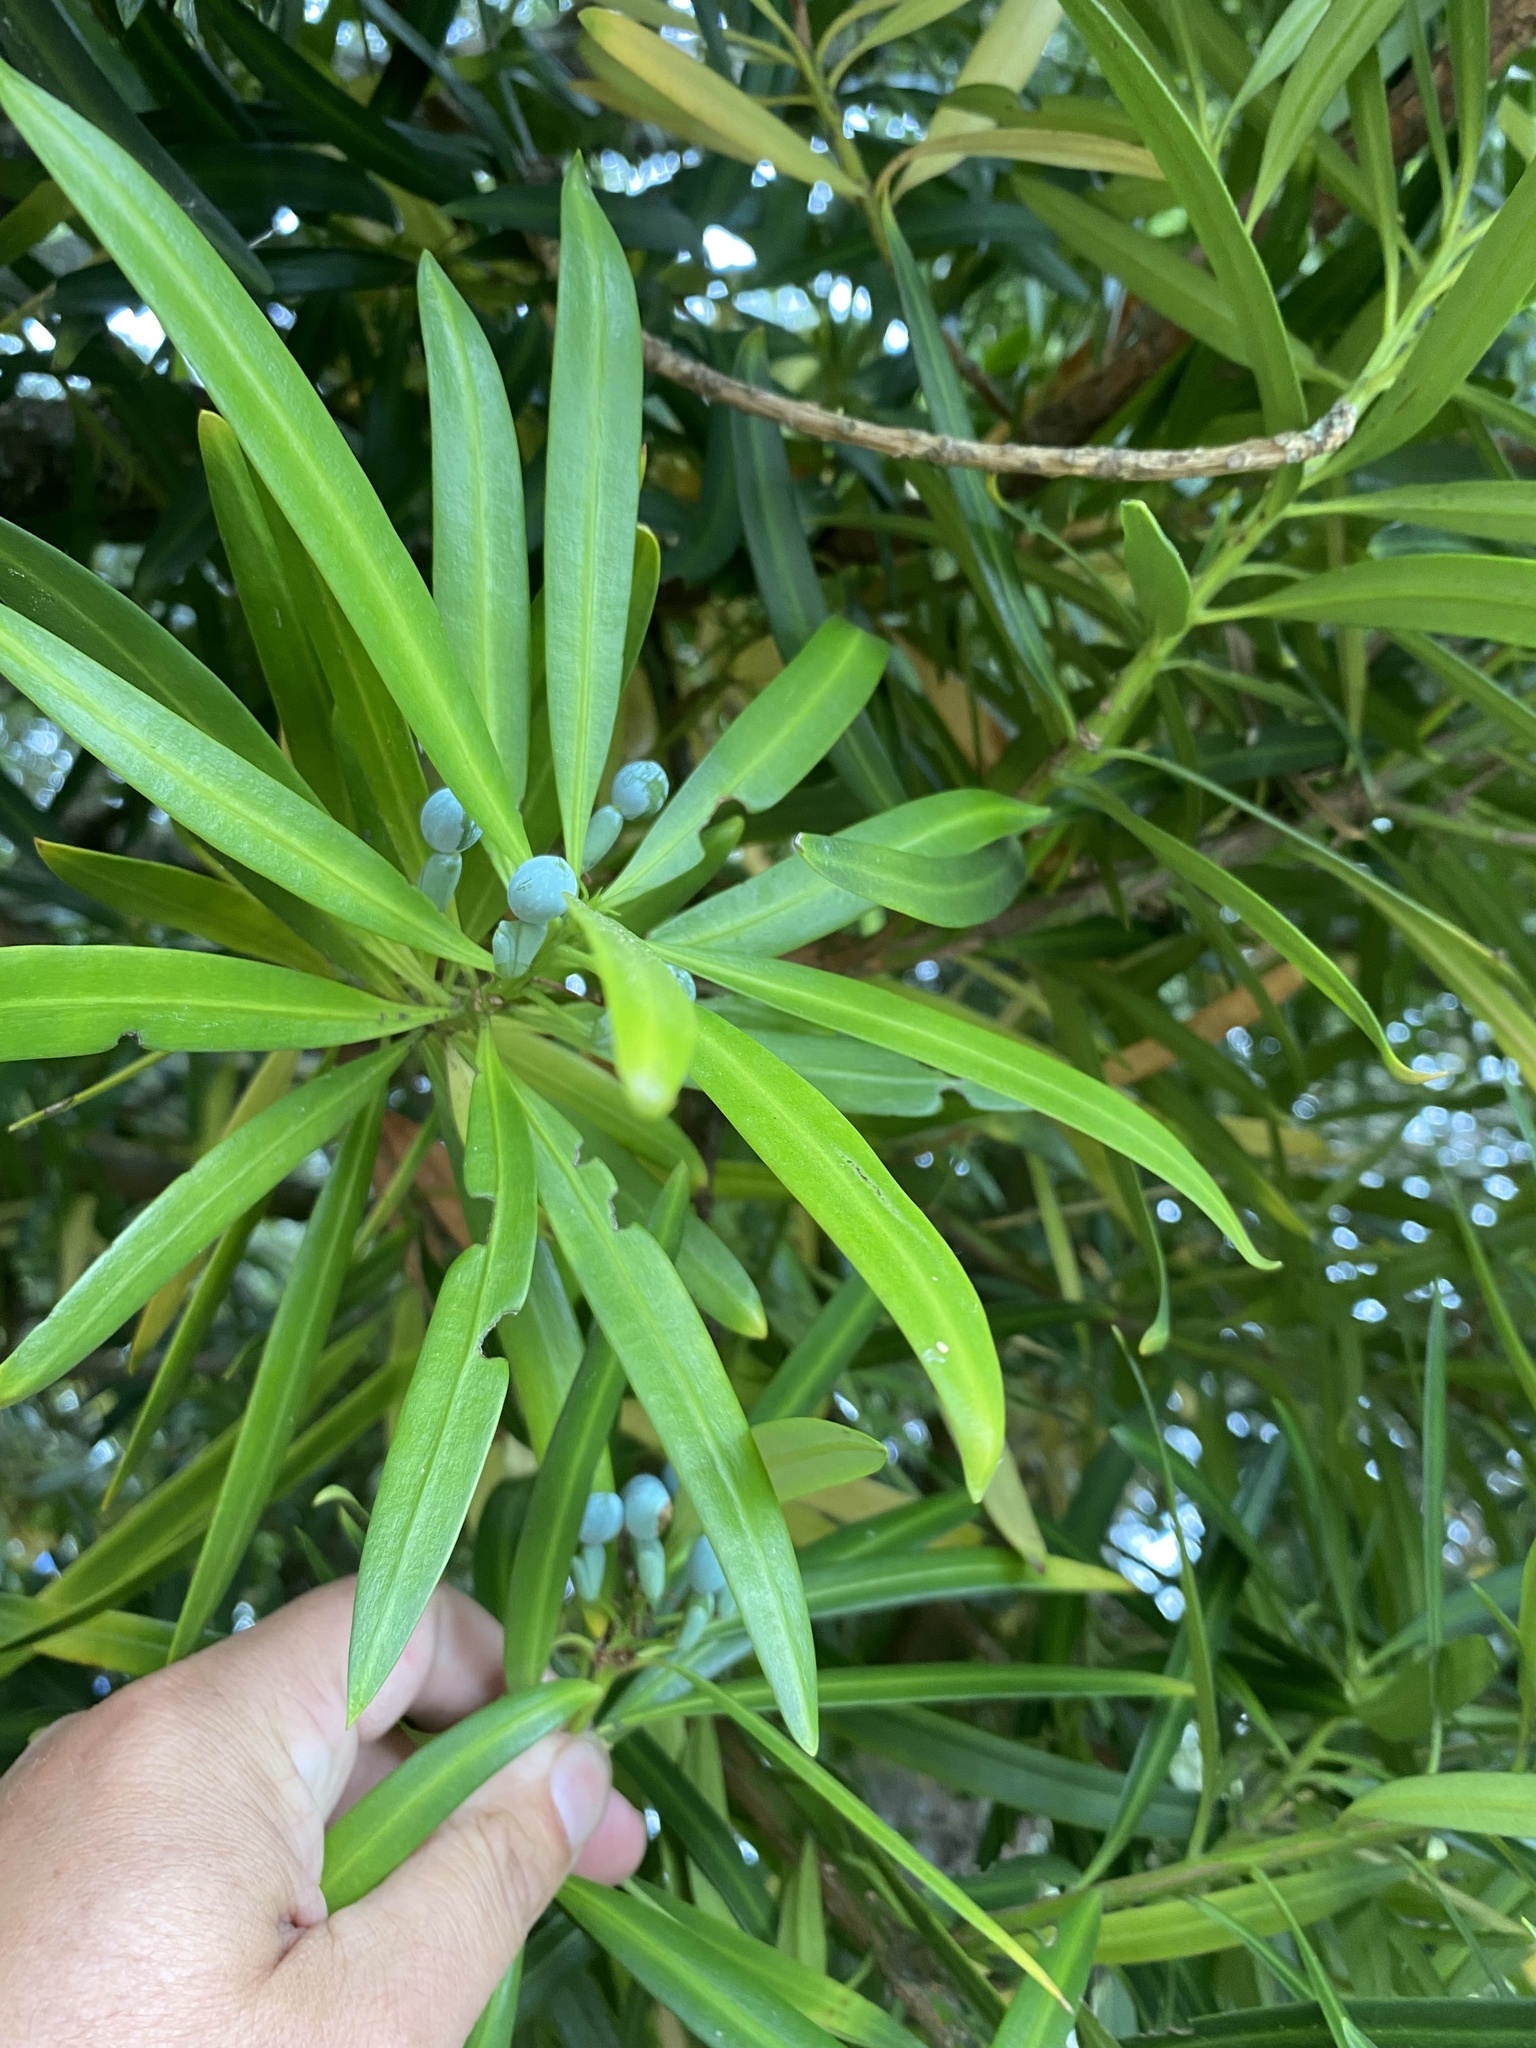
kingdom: Plantae
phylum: Tracheophyta
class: Pinopsida
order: Pinales
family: Podocarpaceae
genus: Podocarpus
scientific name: Podocarpus macrophyllus
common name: Japanese yew
